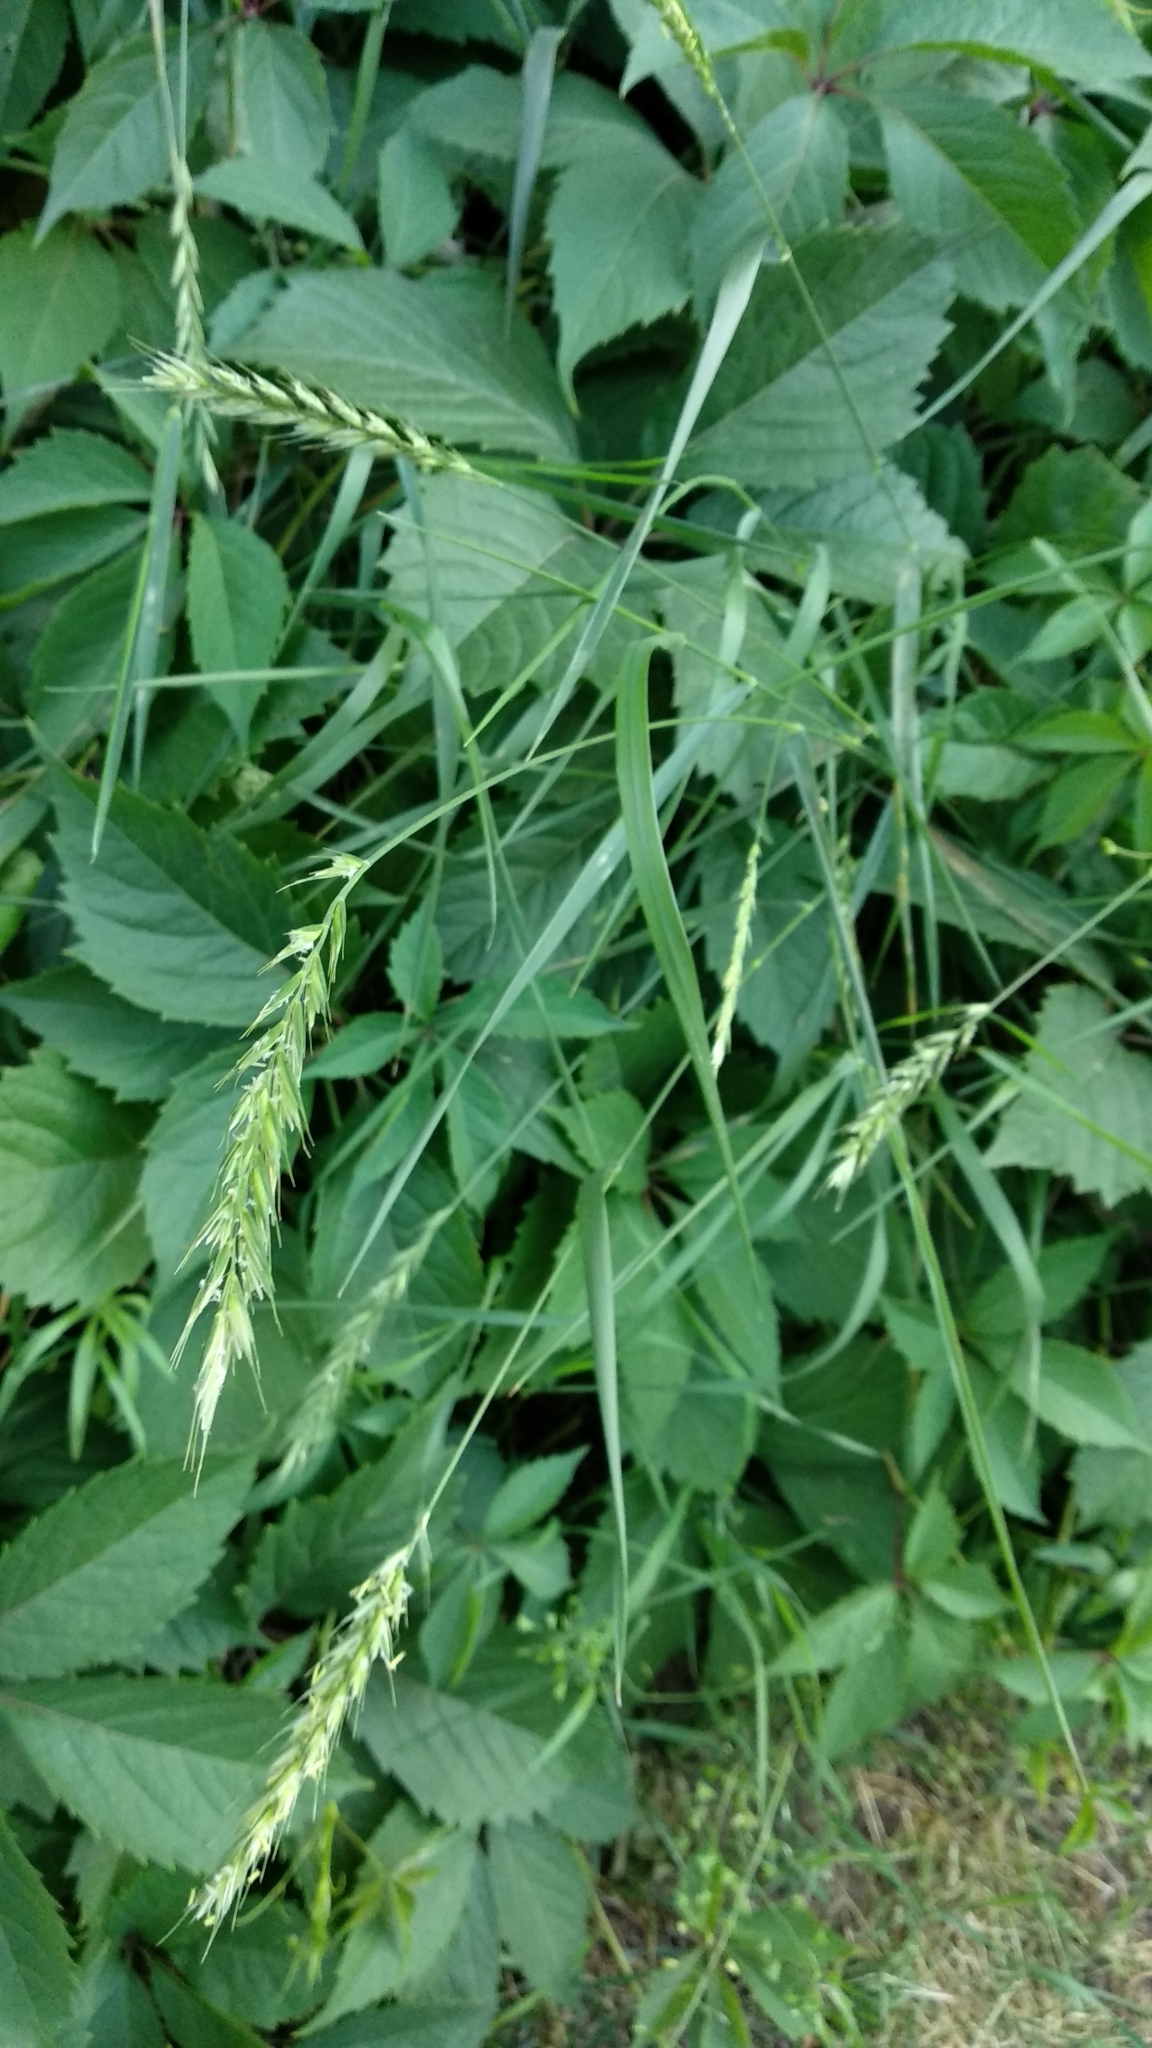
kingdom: Plantae
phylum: Tracheophyta
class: Liliopsida
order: Poales
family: Poaceae
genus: Elymus
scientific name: Elymus repens
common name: Quackgrass
